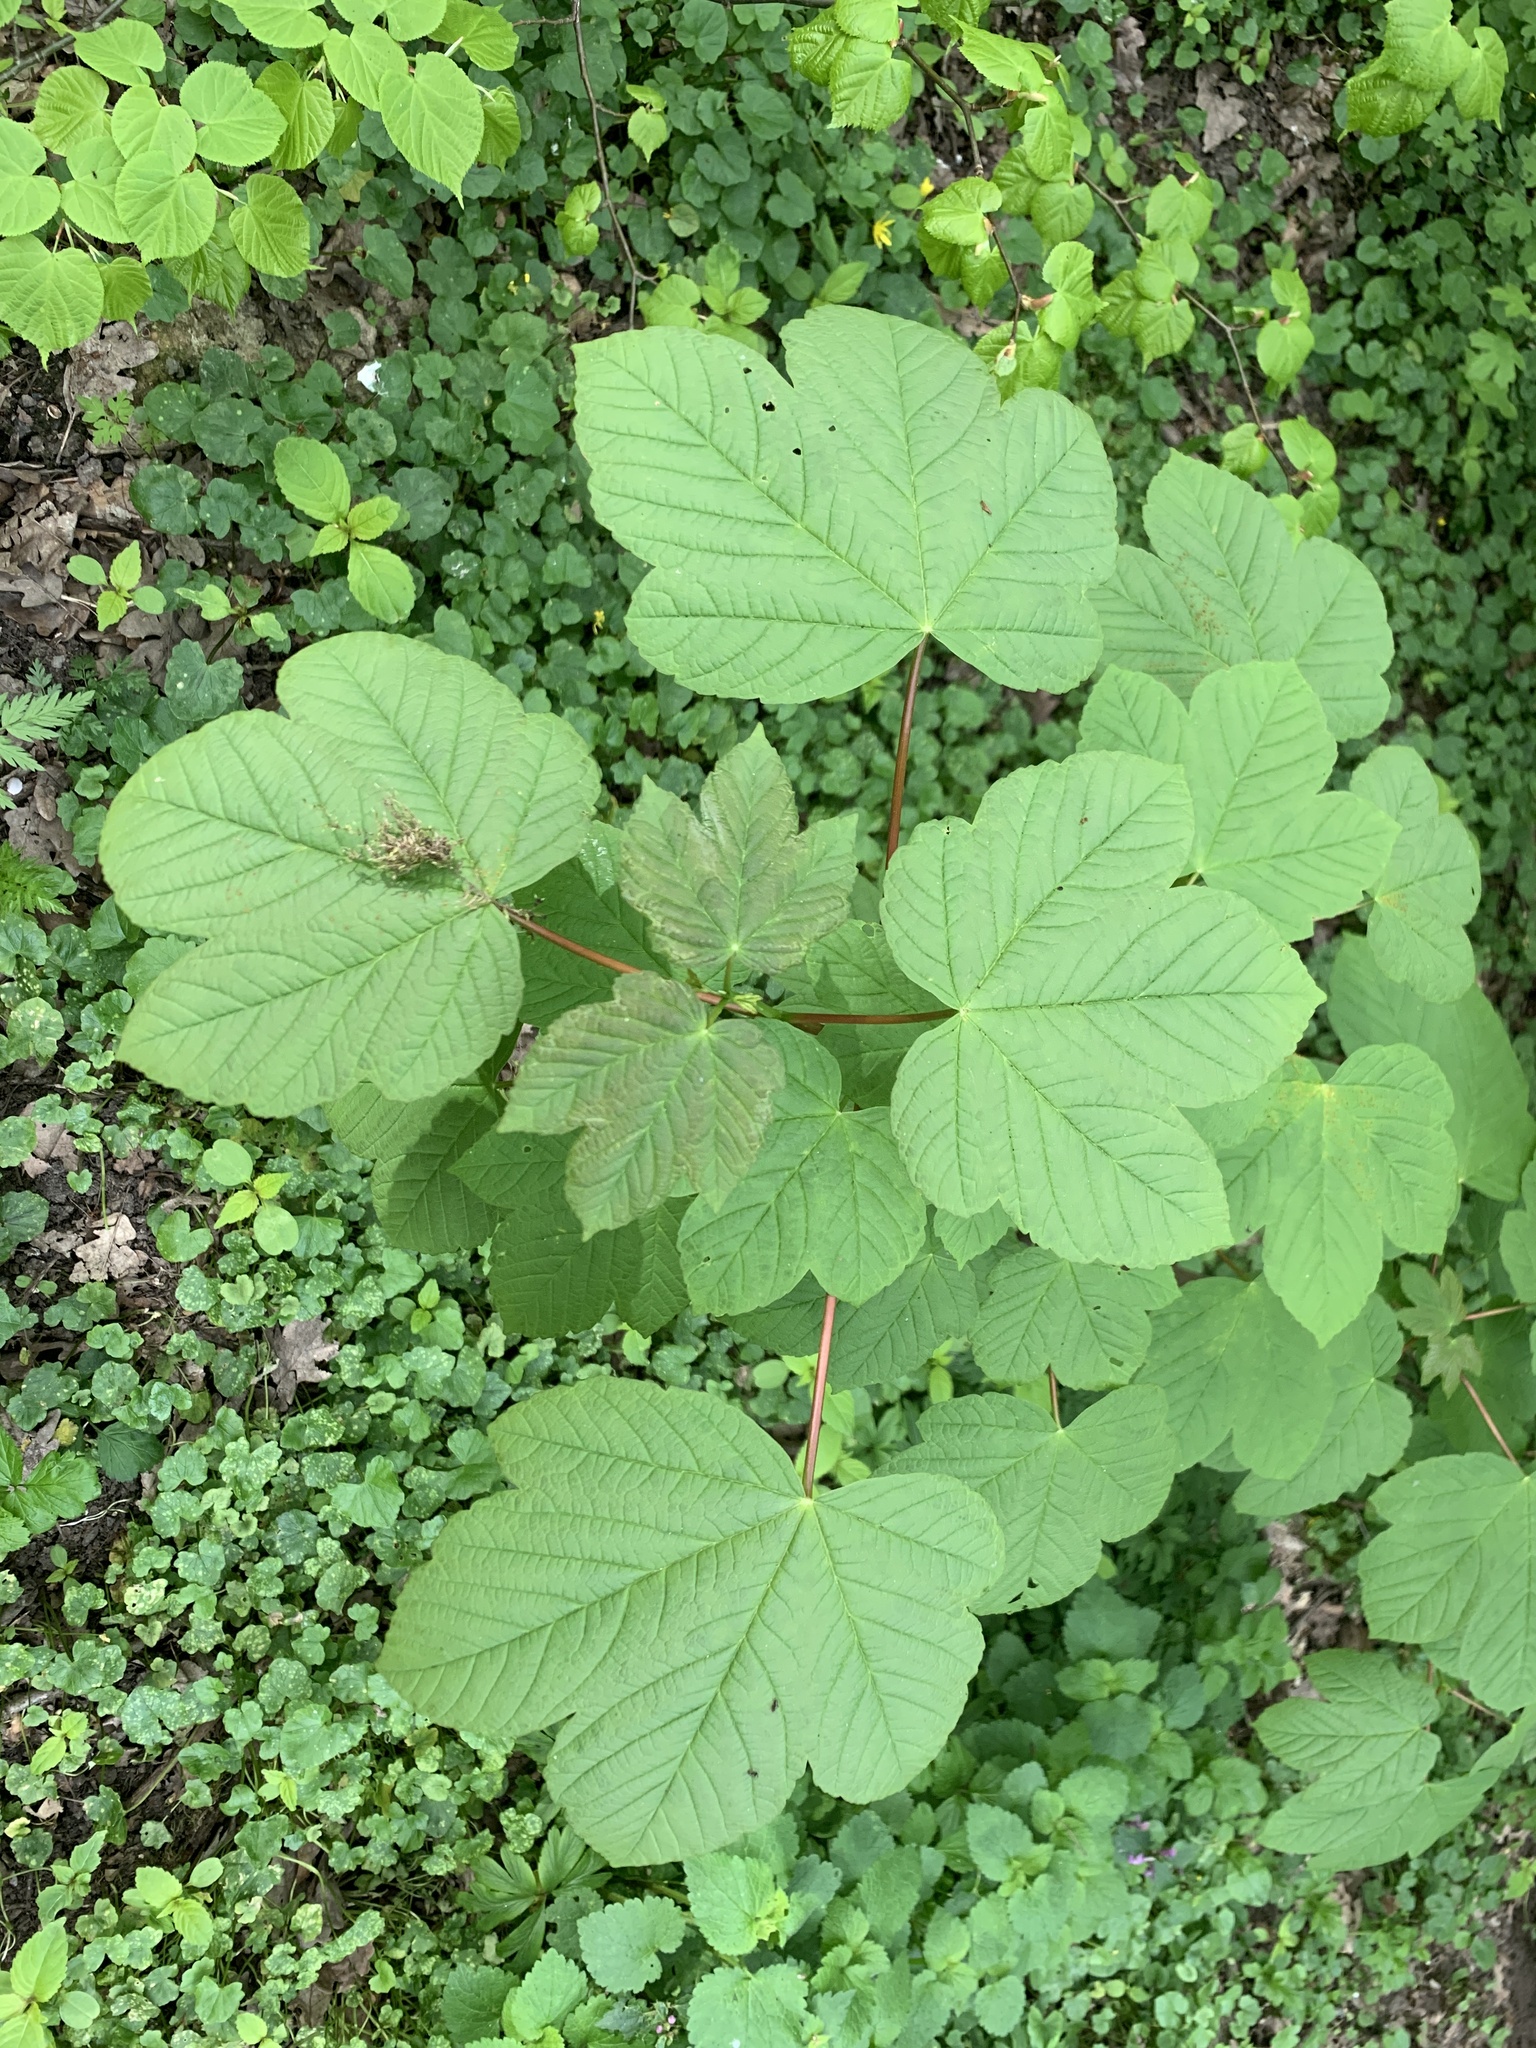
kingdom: Plantae
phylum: Tracheophyta
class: Magnoliopsida
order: Sapindales
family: Sapindaceae
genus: Acer
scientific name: Acer pseudoplatanus
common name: Sycamore
